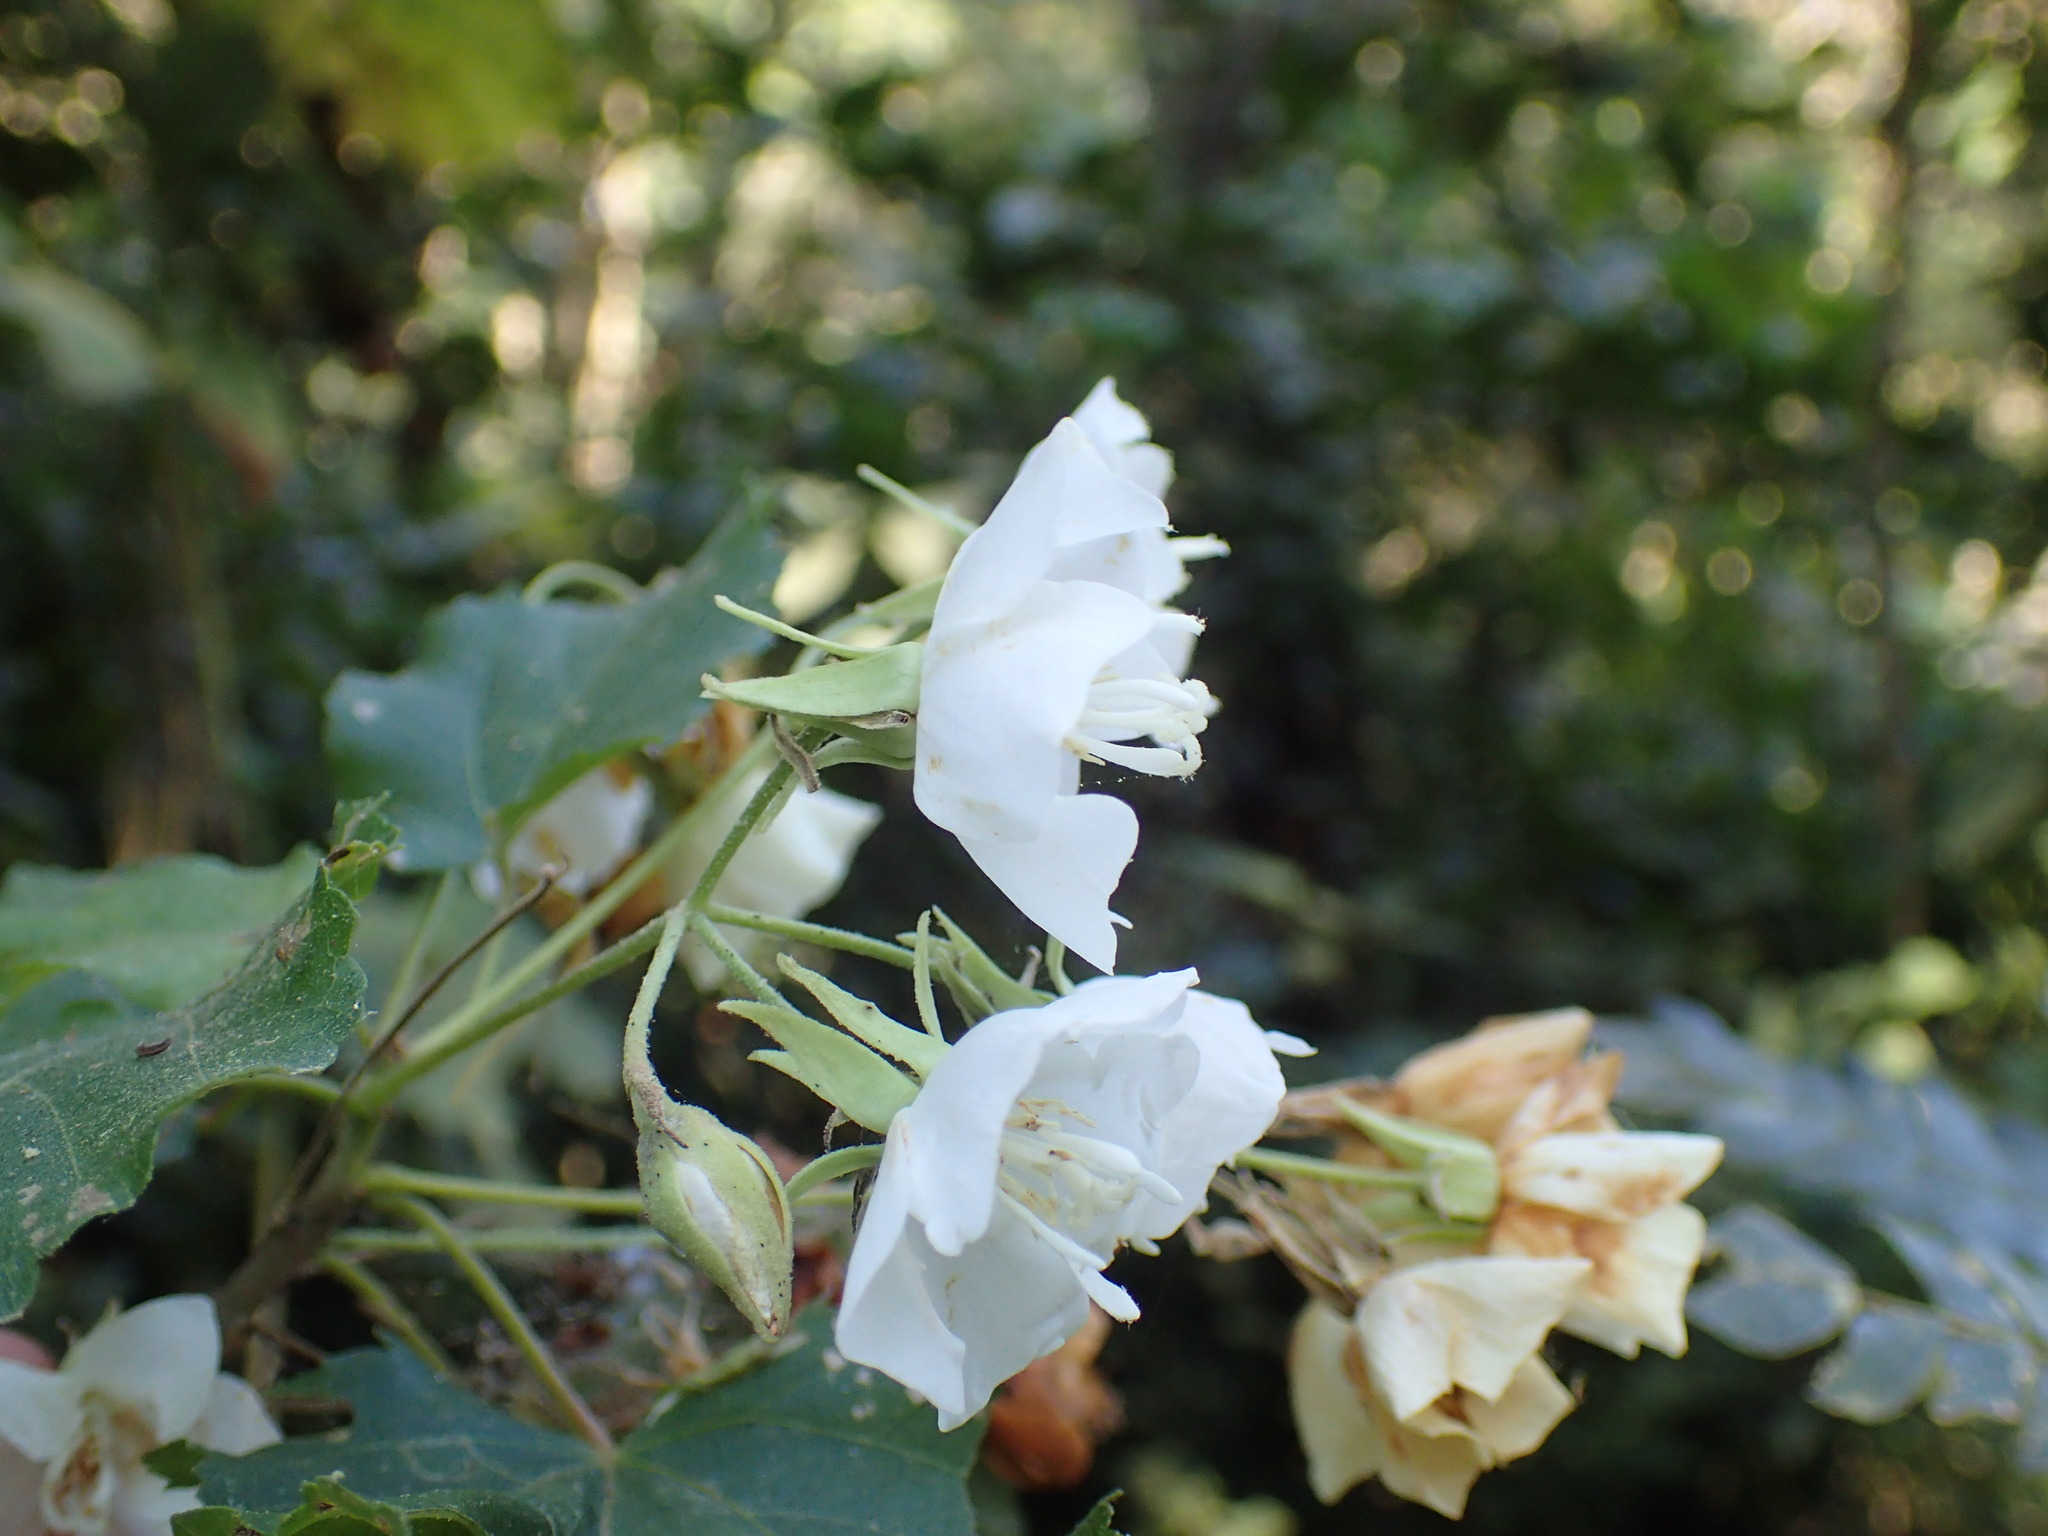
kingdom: Plantae
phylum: Tracheophyta
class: Magnoliopsida
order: Malvales
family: Malvaceae
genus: Dombeya
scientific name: Dombeya cymosa
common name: Hairless dombeya
